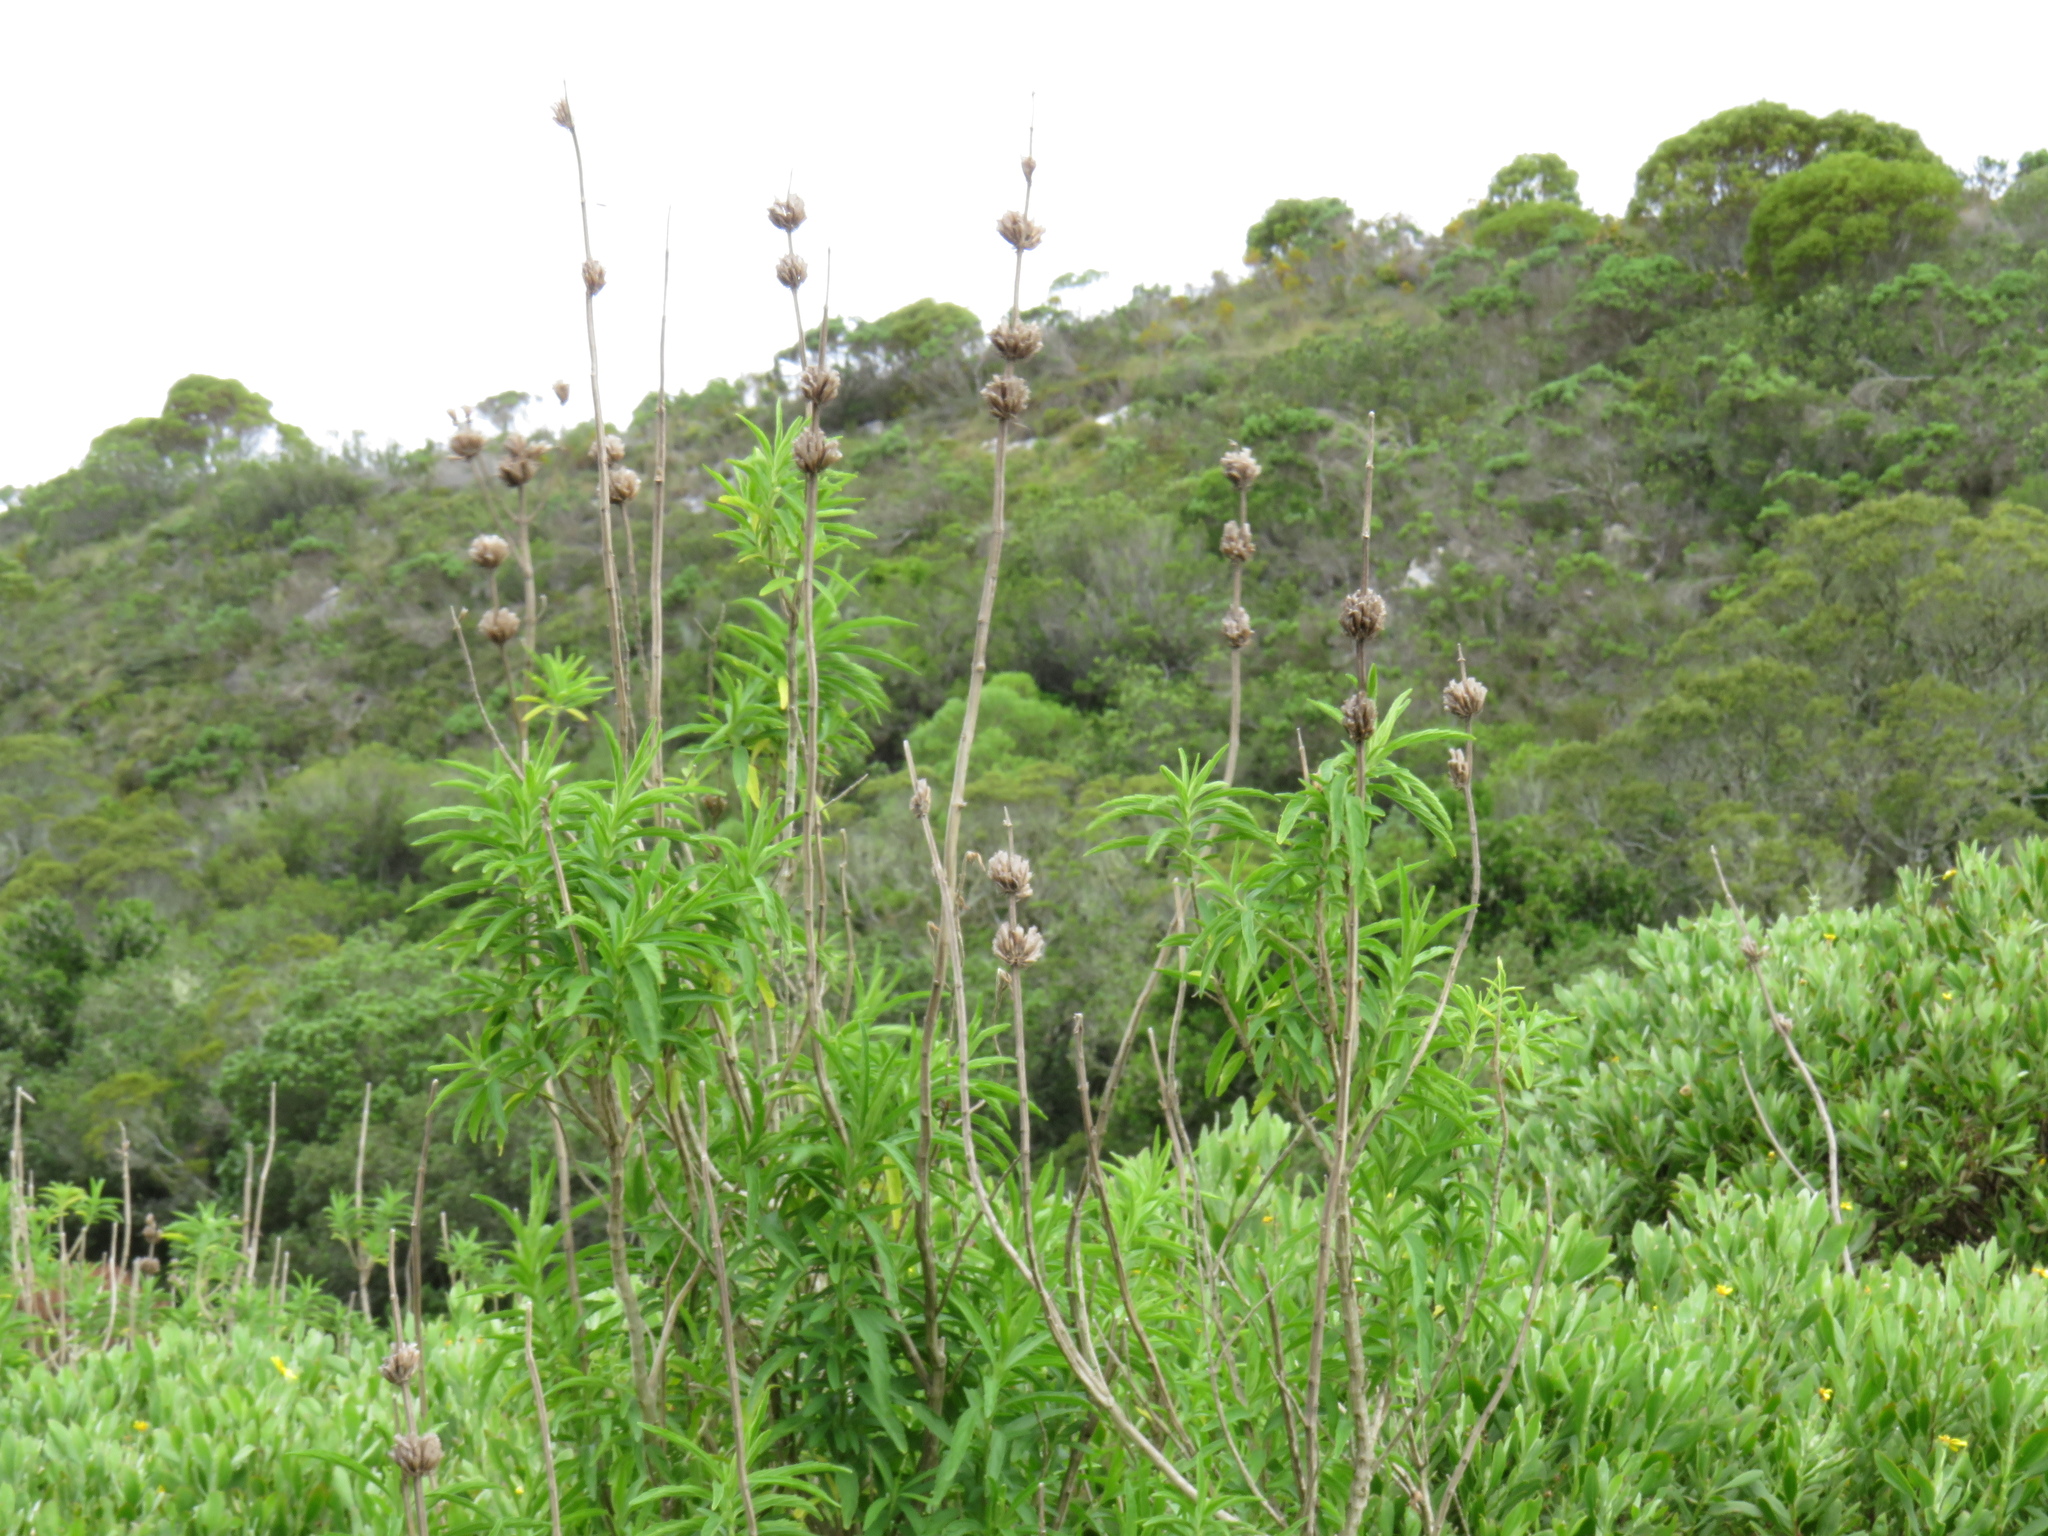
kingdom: Plantae
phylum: Tracheophyta
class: Magnoliopsida
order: Lamiales
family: Lamiaceae
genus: Leonotis
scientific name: Leonotis leonurus
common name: Lion's ear
